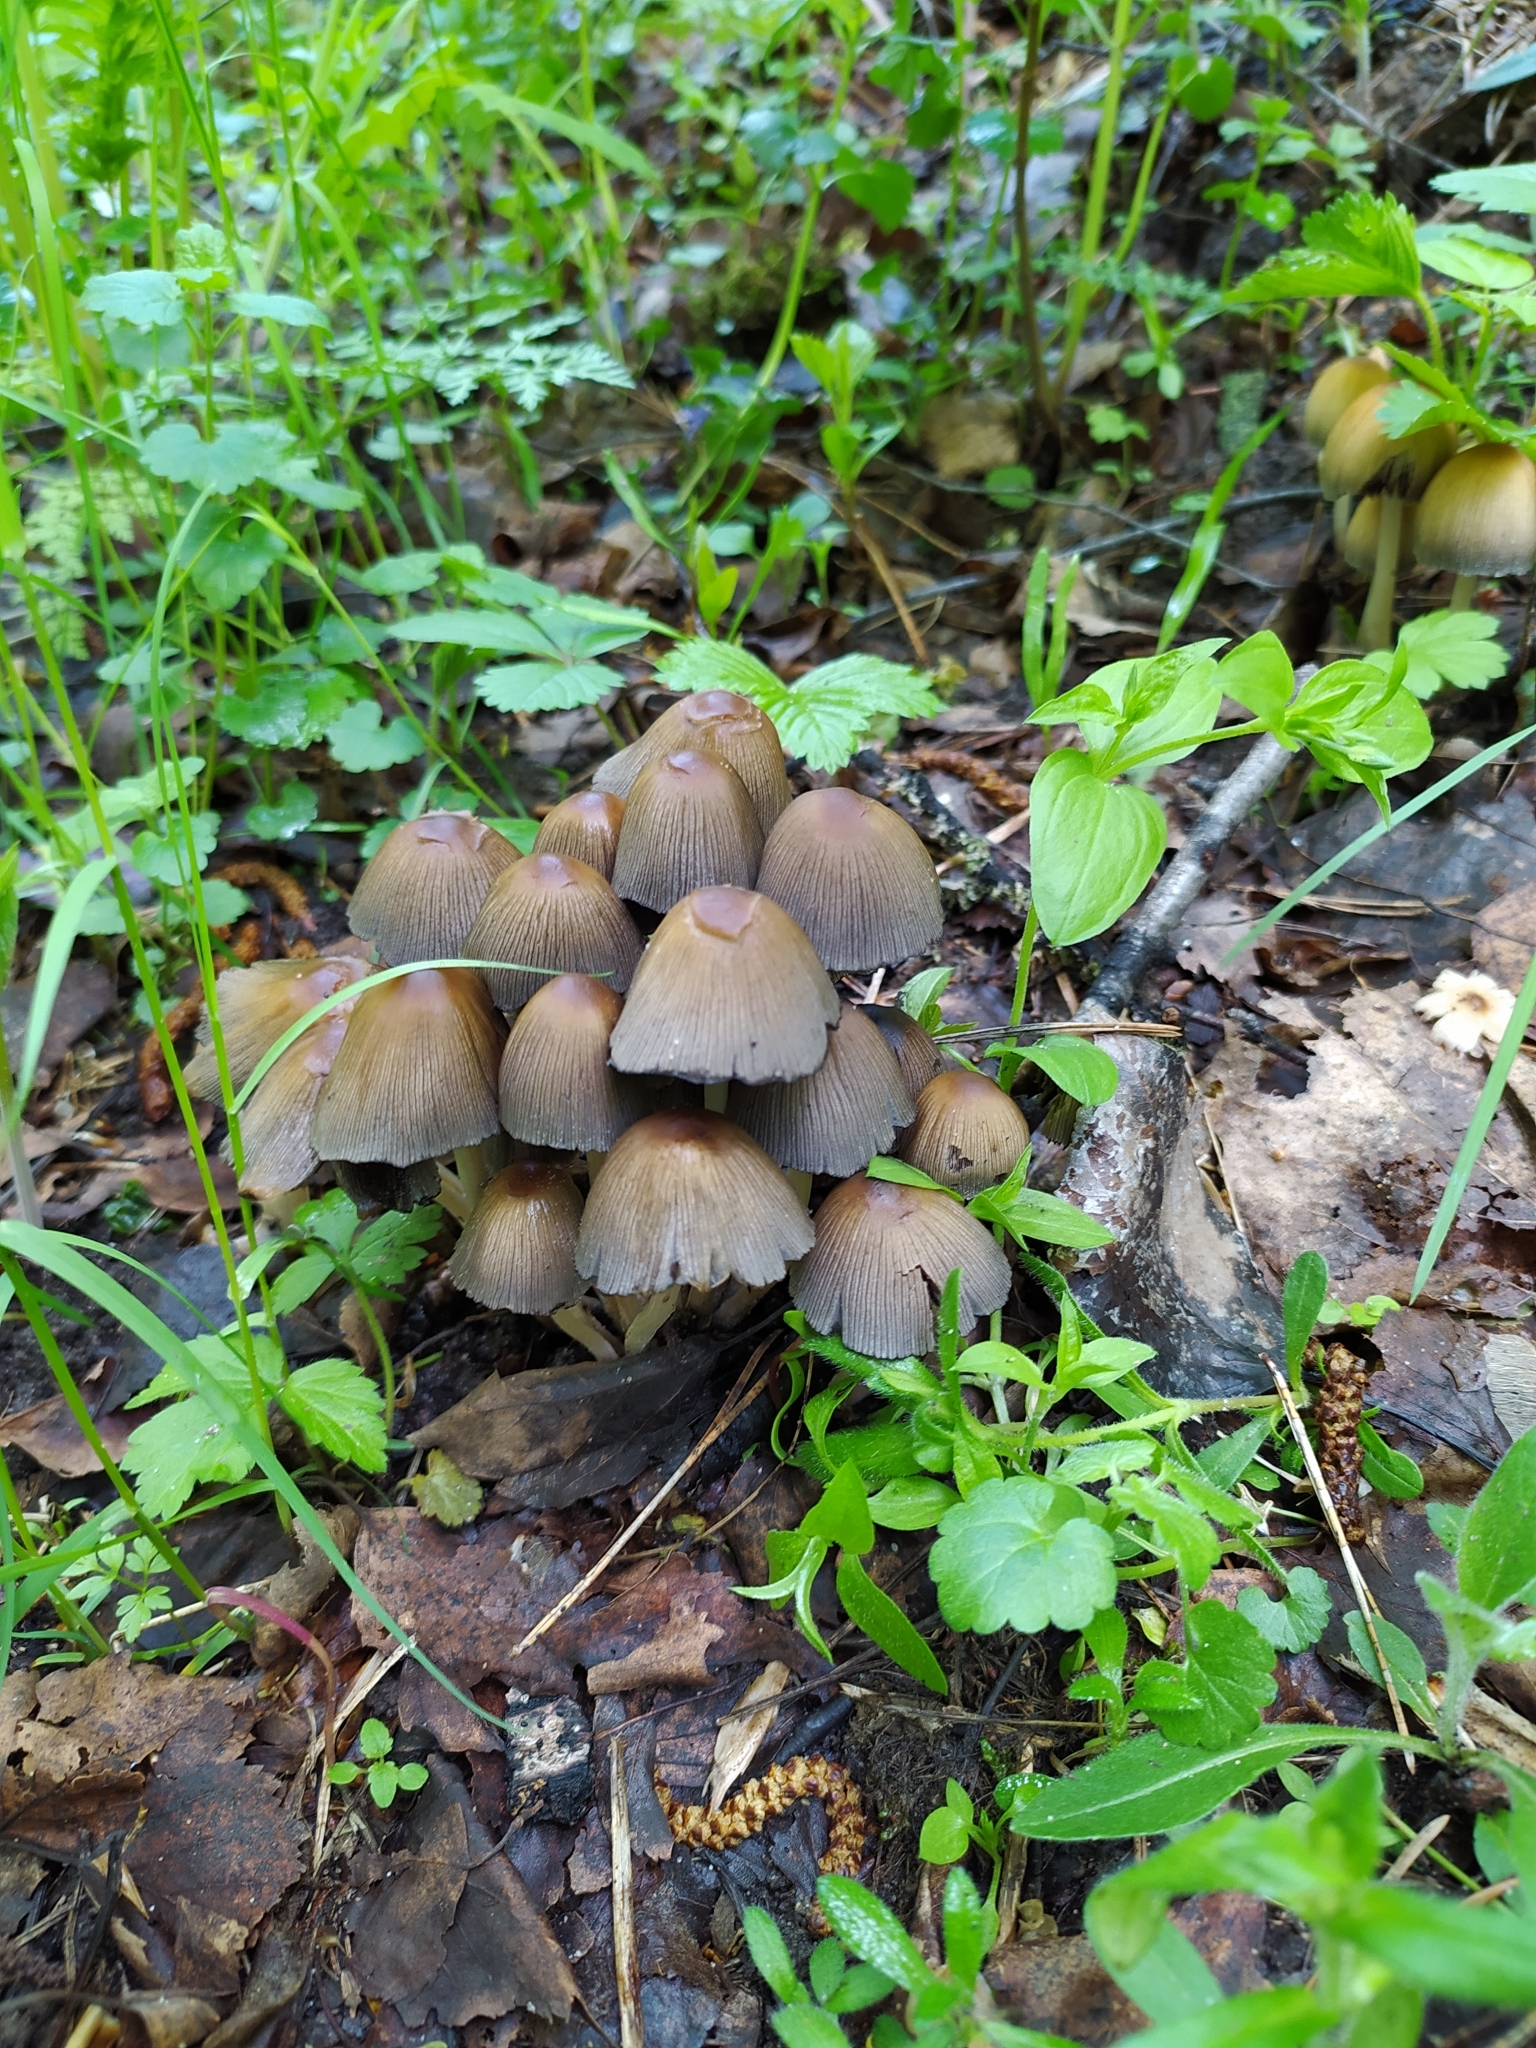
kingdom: Fungi
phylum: Basidiomycota
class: Agaricomycetes
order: Agaricales
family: Psathyrellaceae
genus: Coprinellus
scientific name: Coprinellus micaceus
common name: Glistening ink-cap
